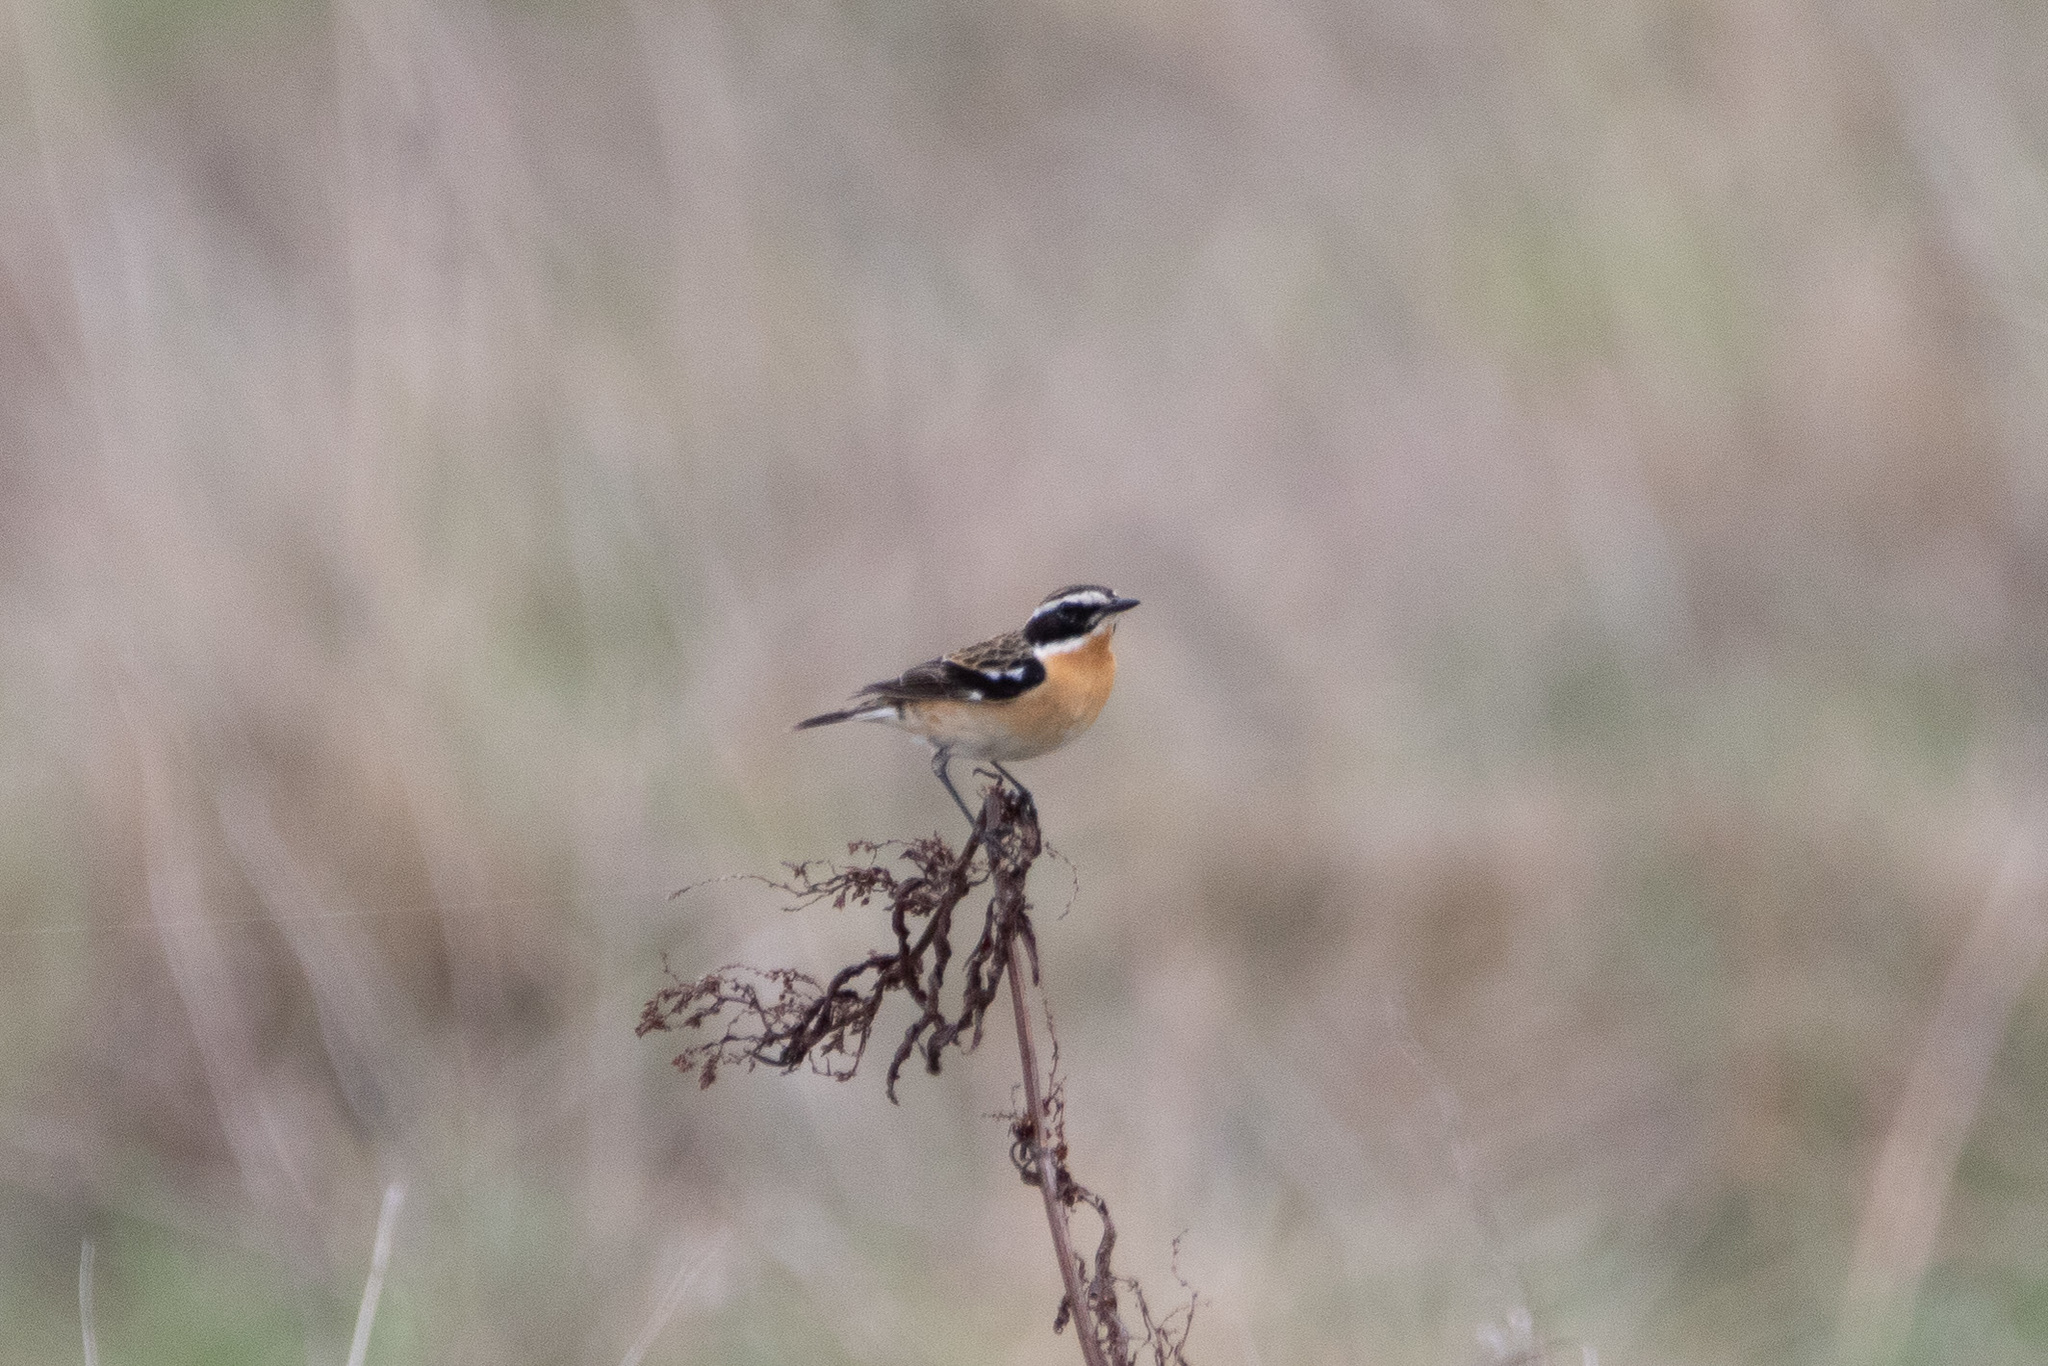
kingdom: Animalia
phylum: Chordata
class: Aves
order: Passeriformes
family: Muscicapidae
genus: Saxicola
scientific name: Saxicola rubetra
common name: Whinchat
